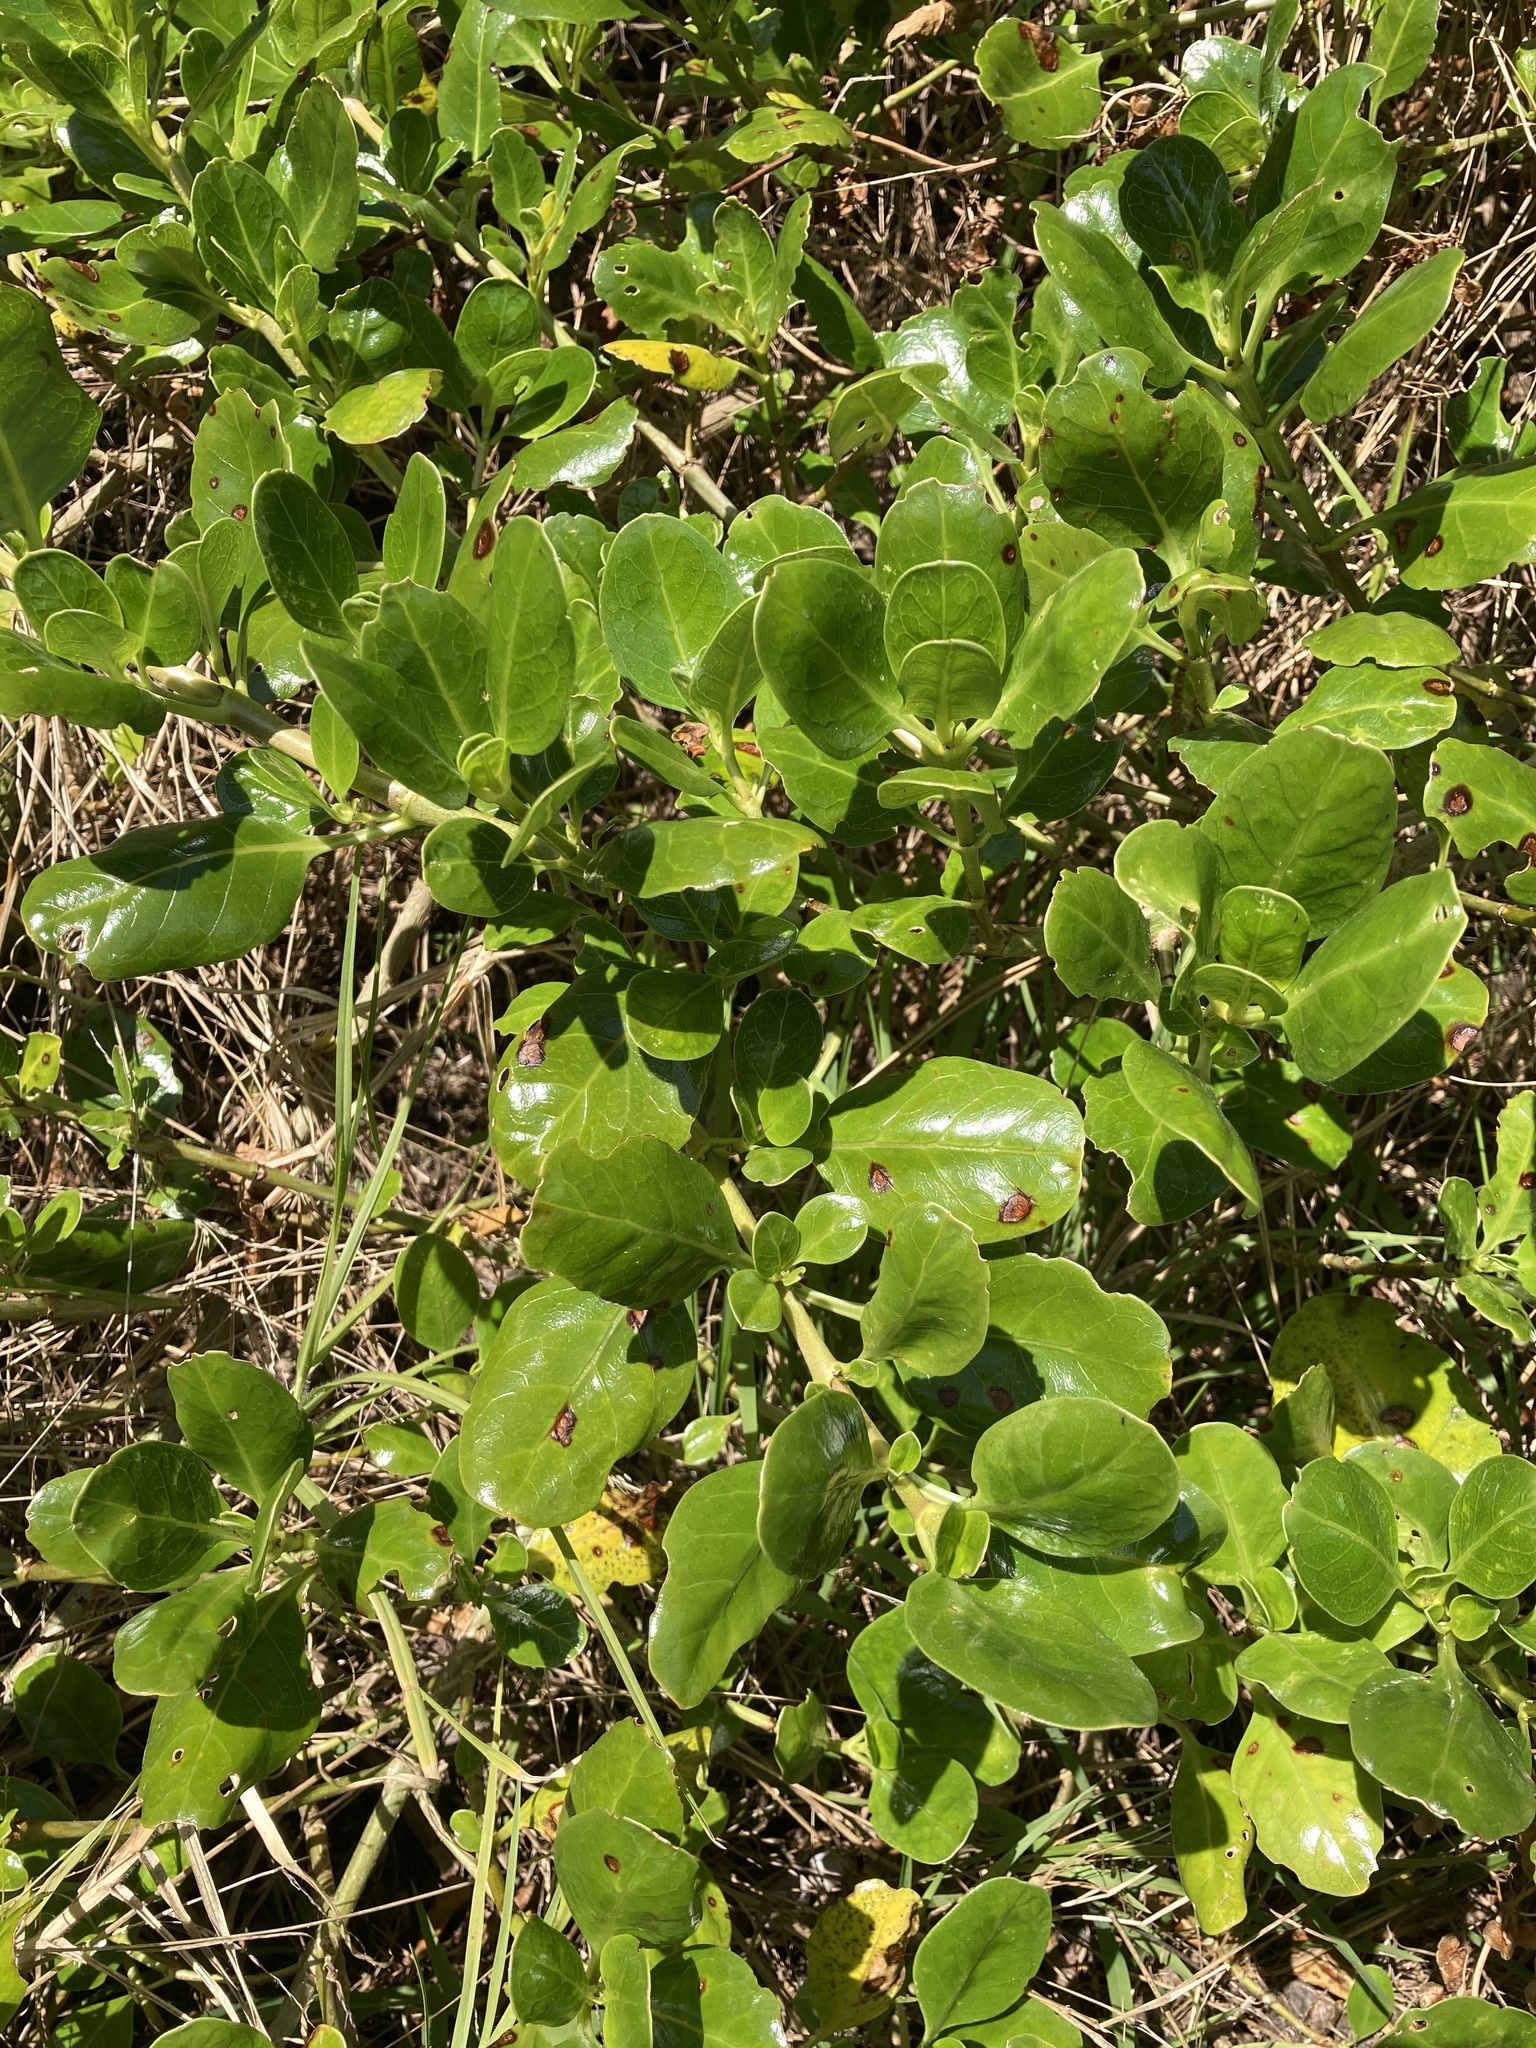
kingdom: Plantae
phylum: Tracheophyta
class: Magnoliopsida
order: Gentianales
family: Rubiaceae
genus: Coprosma
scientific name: Coprosma repens
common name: Tree bedstraw
